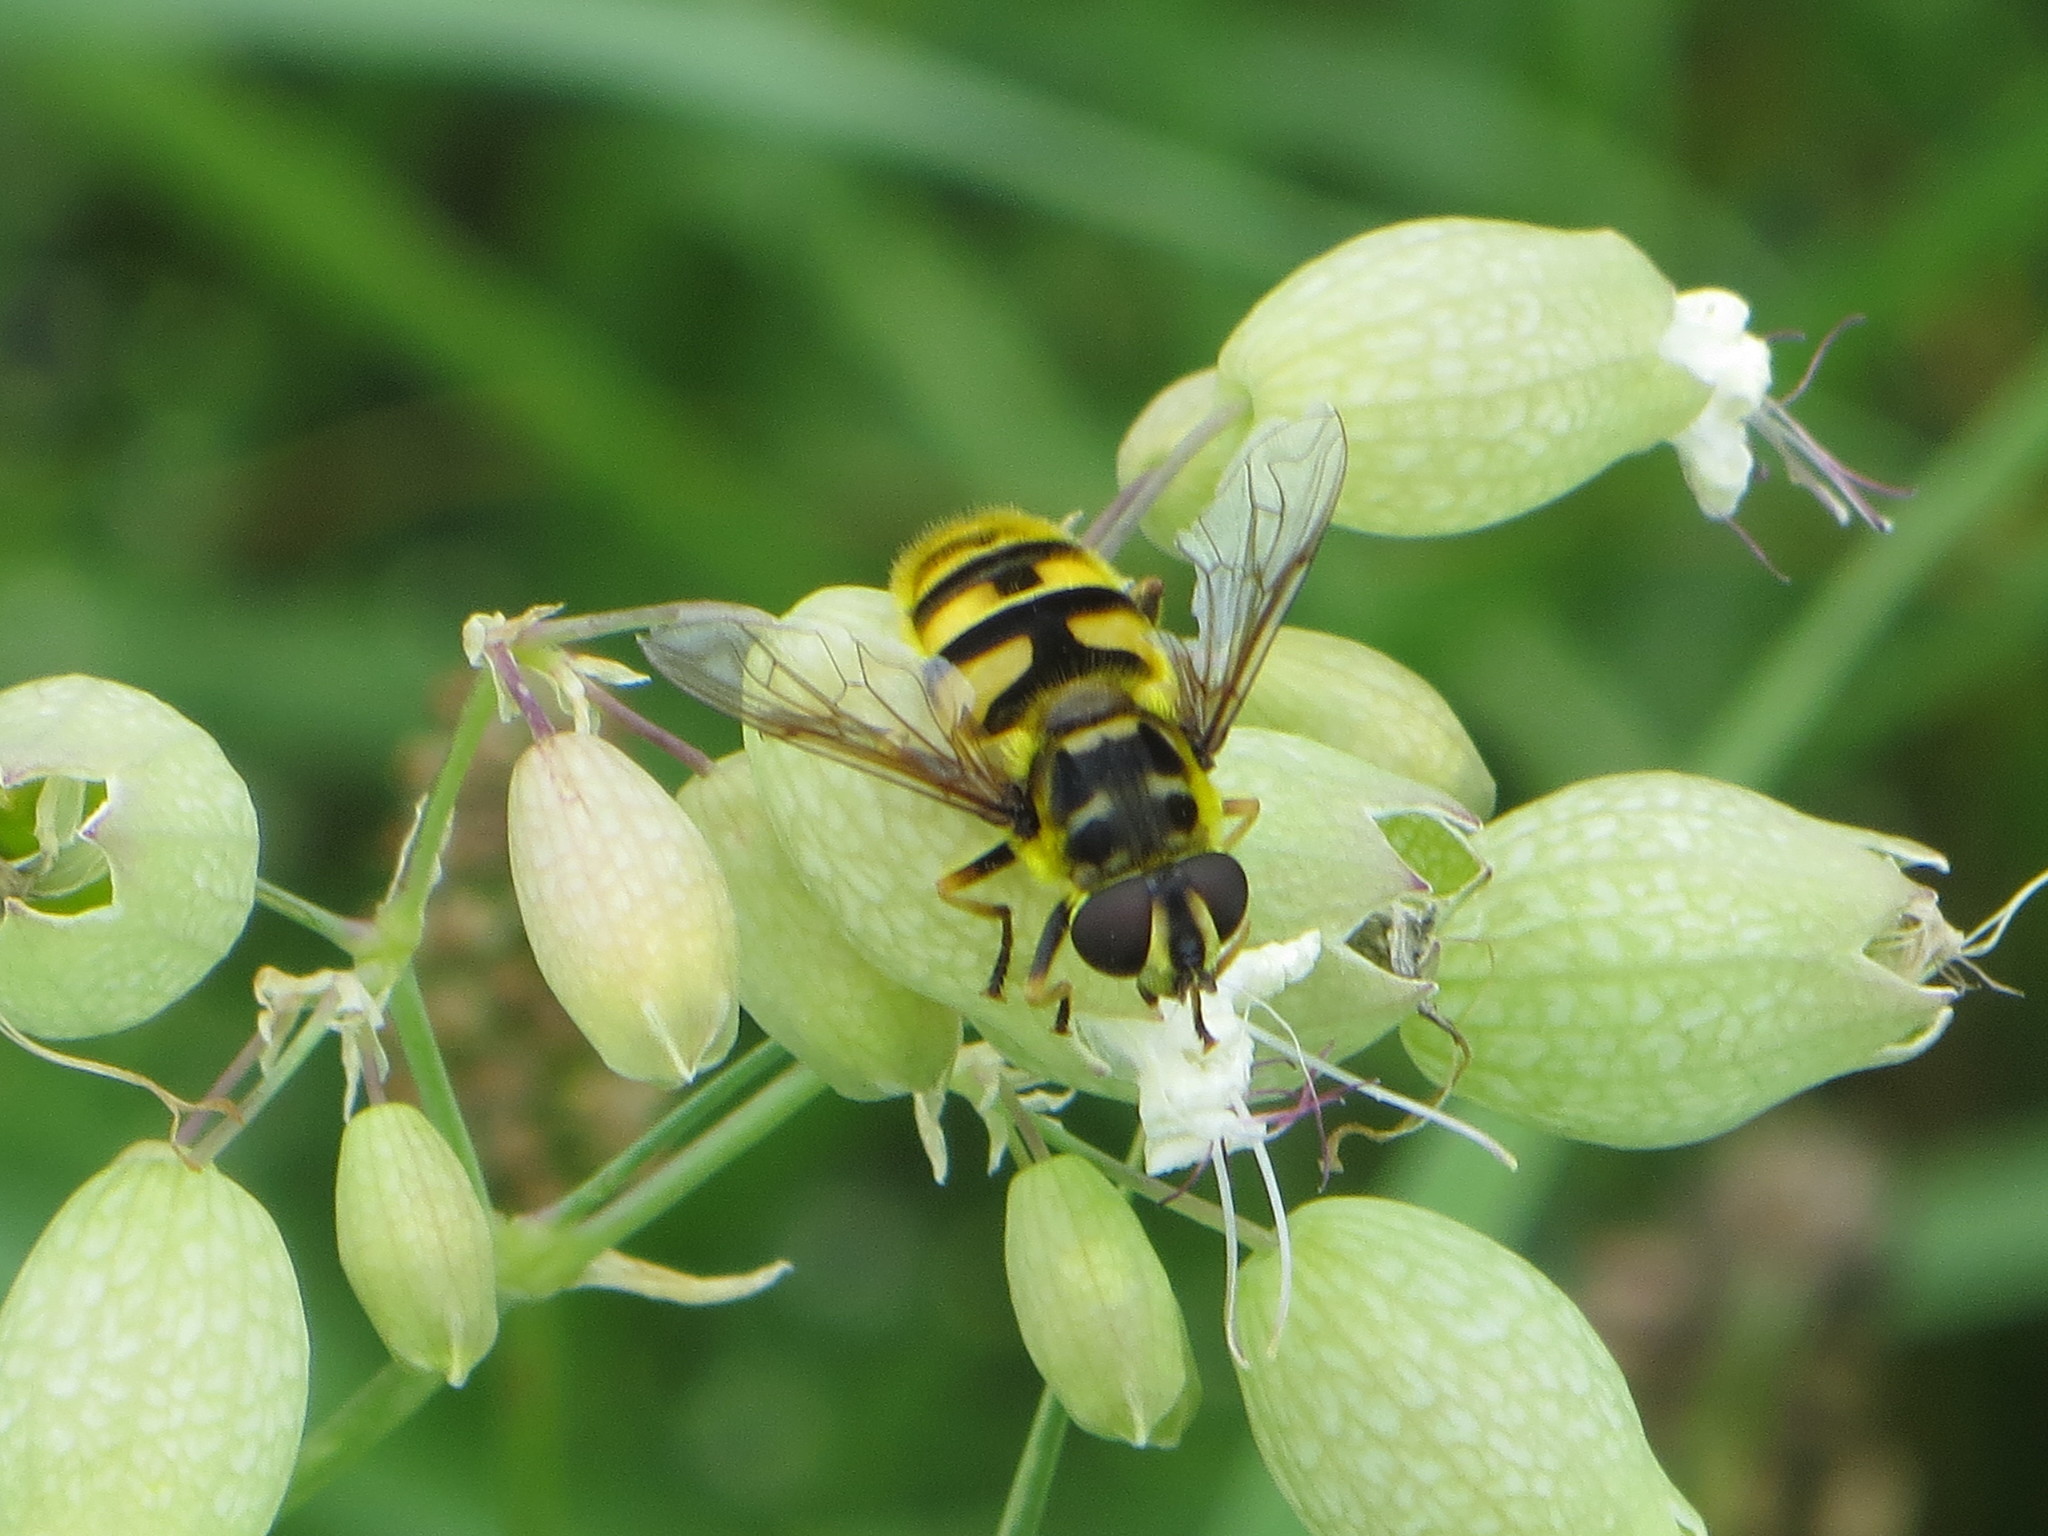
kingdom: Animalia
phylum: Arthropoda
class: Insecta
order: Diptera
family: Syrphidae
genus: Myathropa
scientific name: Myathropa florea
